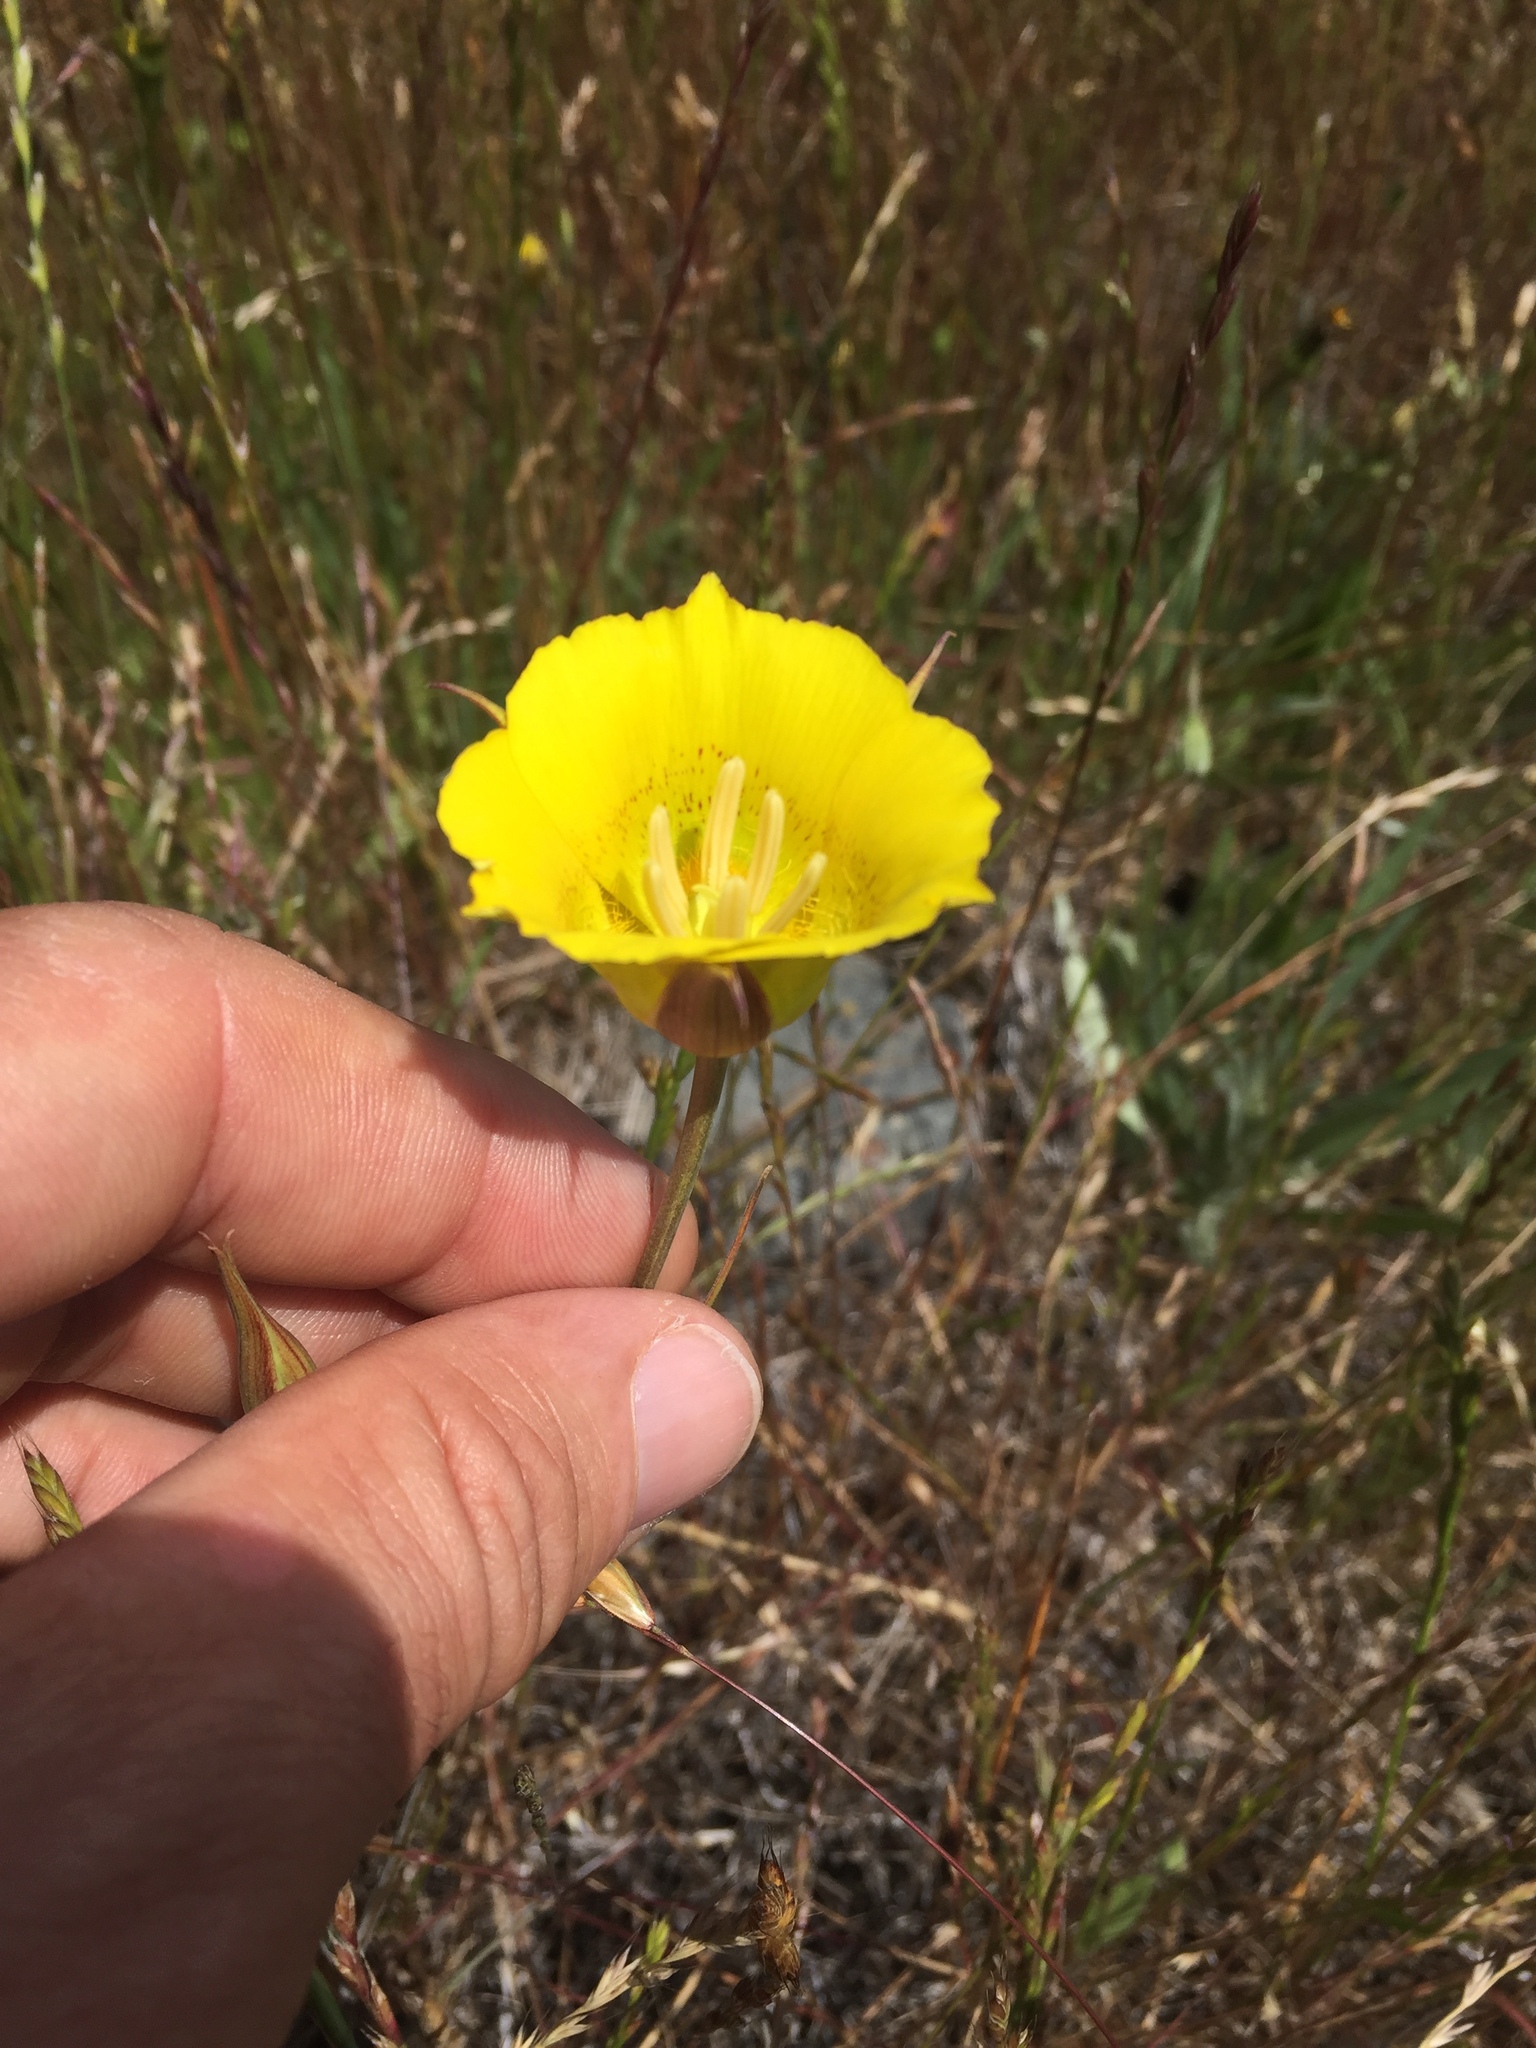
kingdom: Plantae
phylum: Tracheophyta
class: Liliopsida
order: Liliales
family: Liliaceae
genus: Calochortus
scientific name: Calochortus luteus
